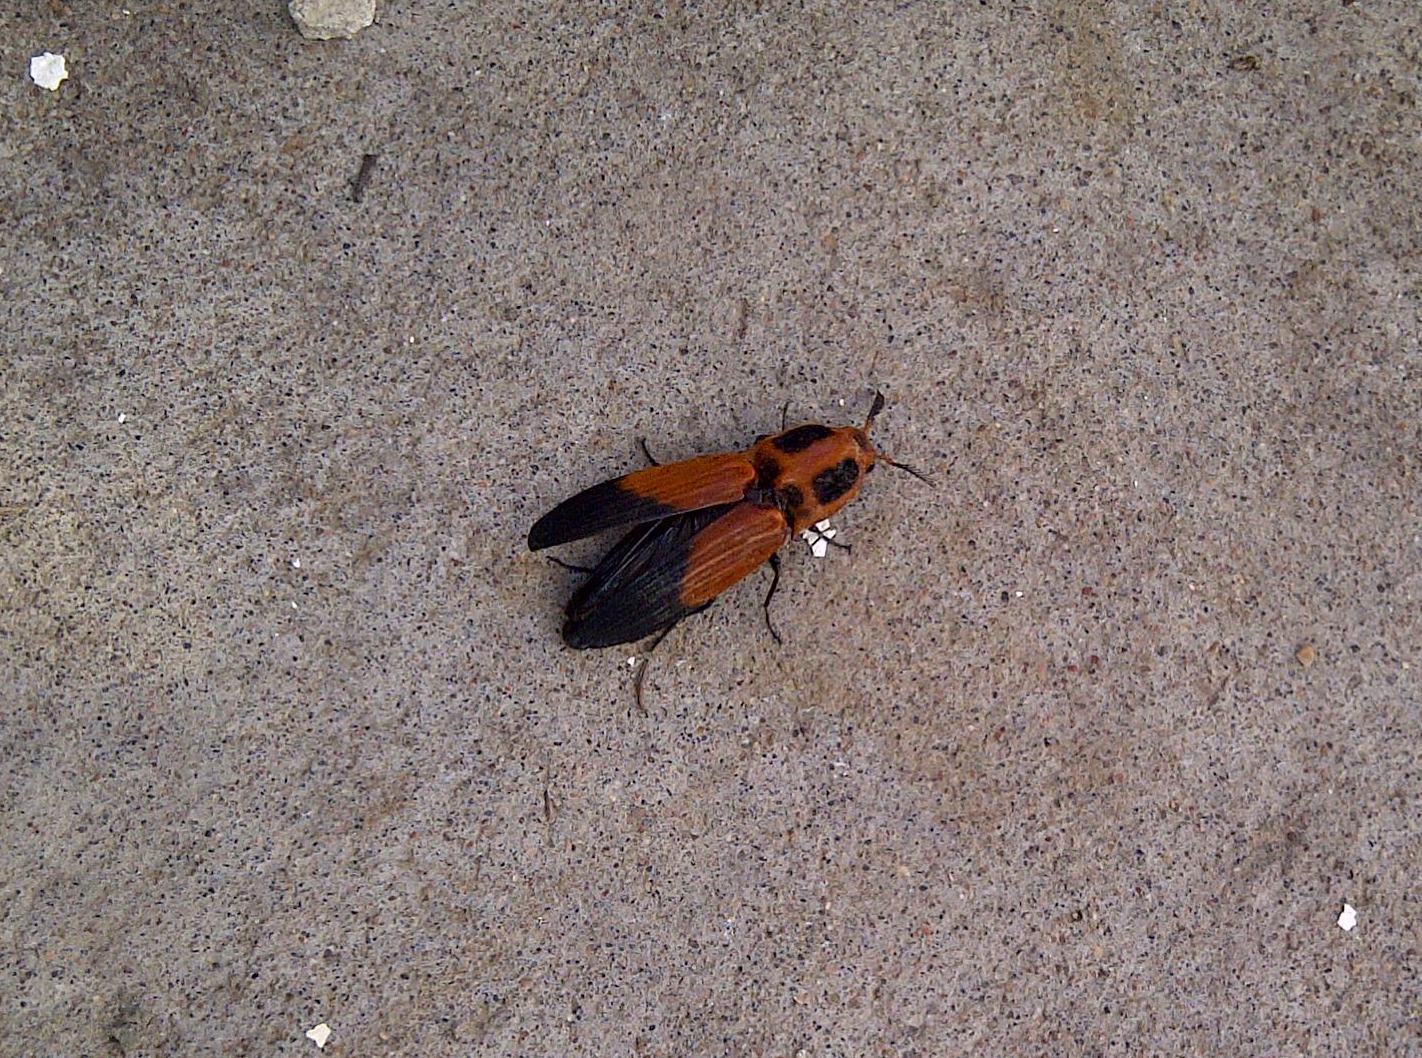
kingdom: Animalia
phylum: Arthropoda
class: Insecta
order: Coleoptera
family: Elateridae
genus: Hemirhipus
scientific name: Hemirhipus
